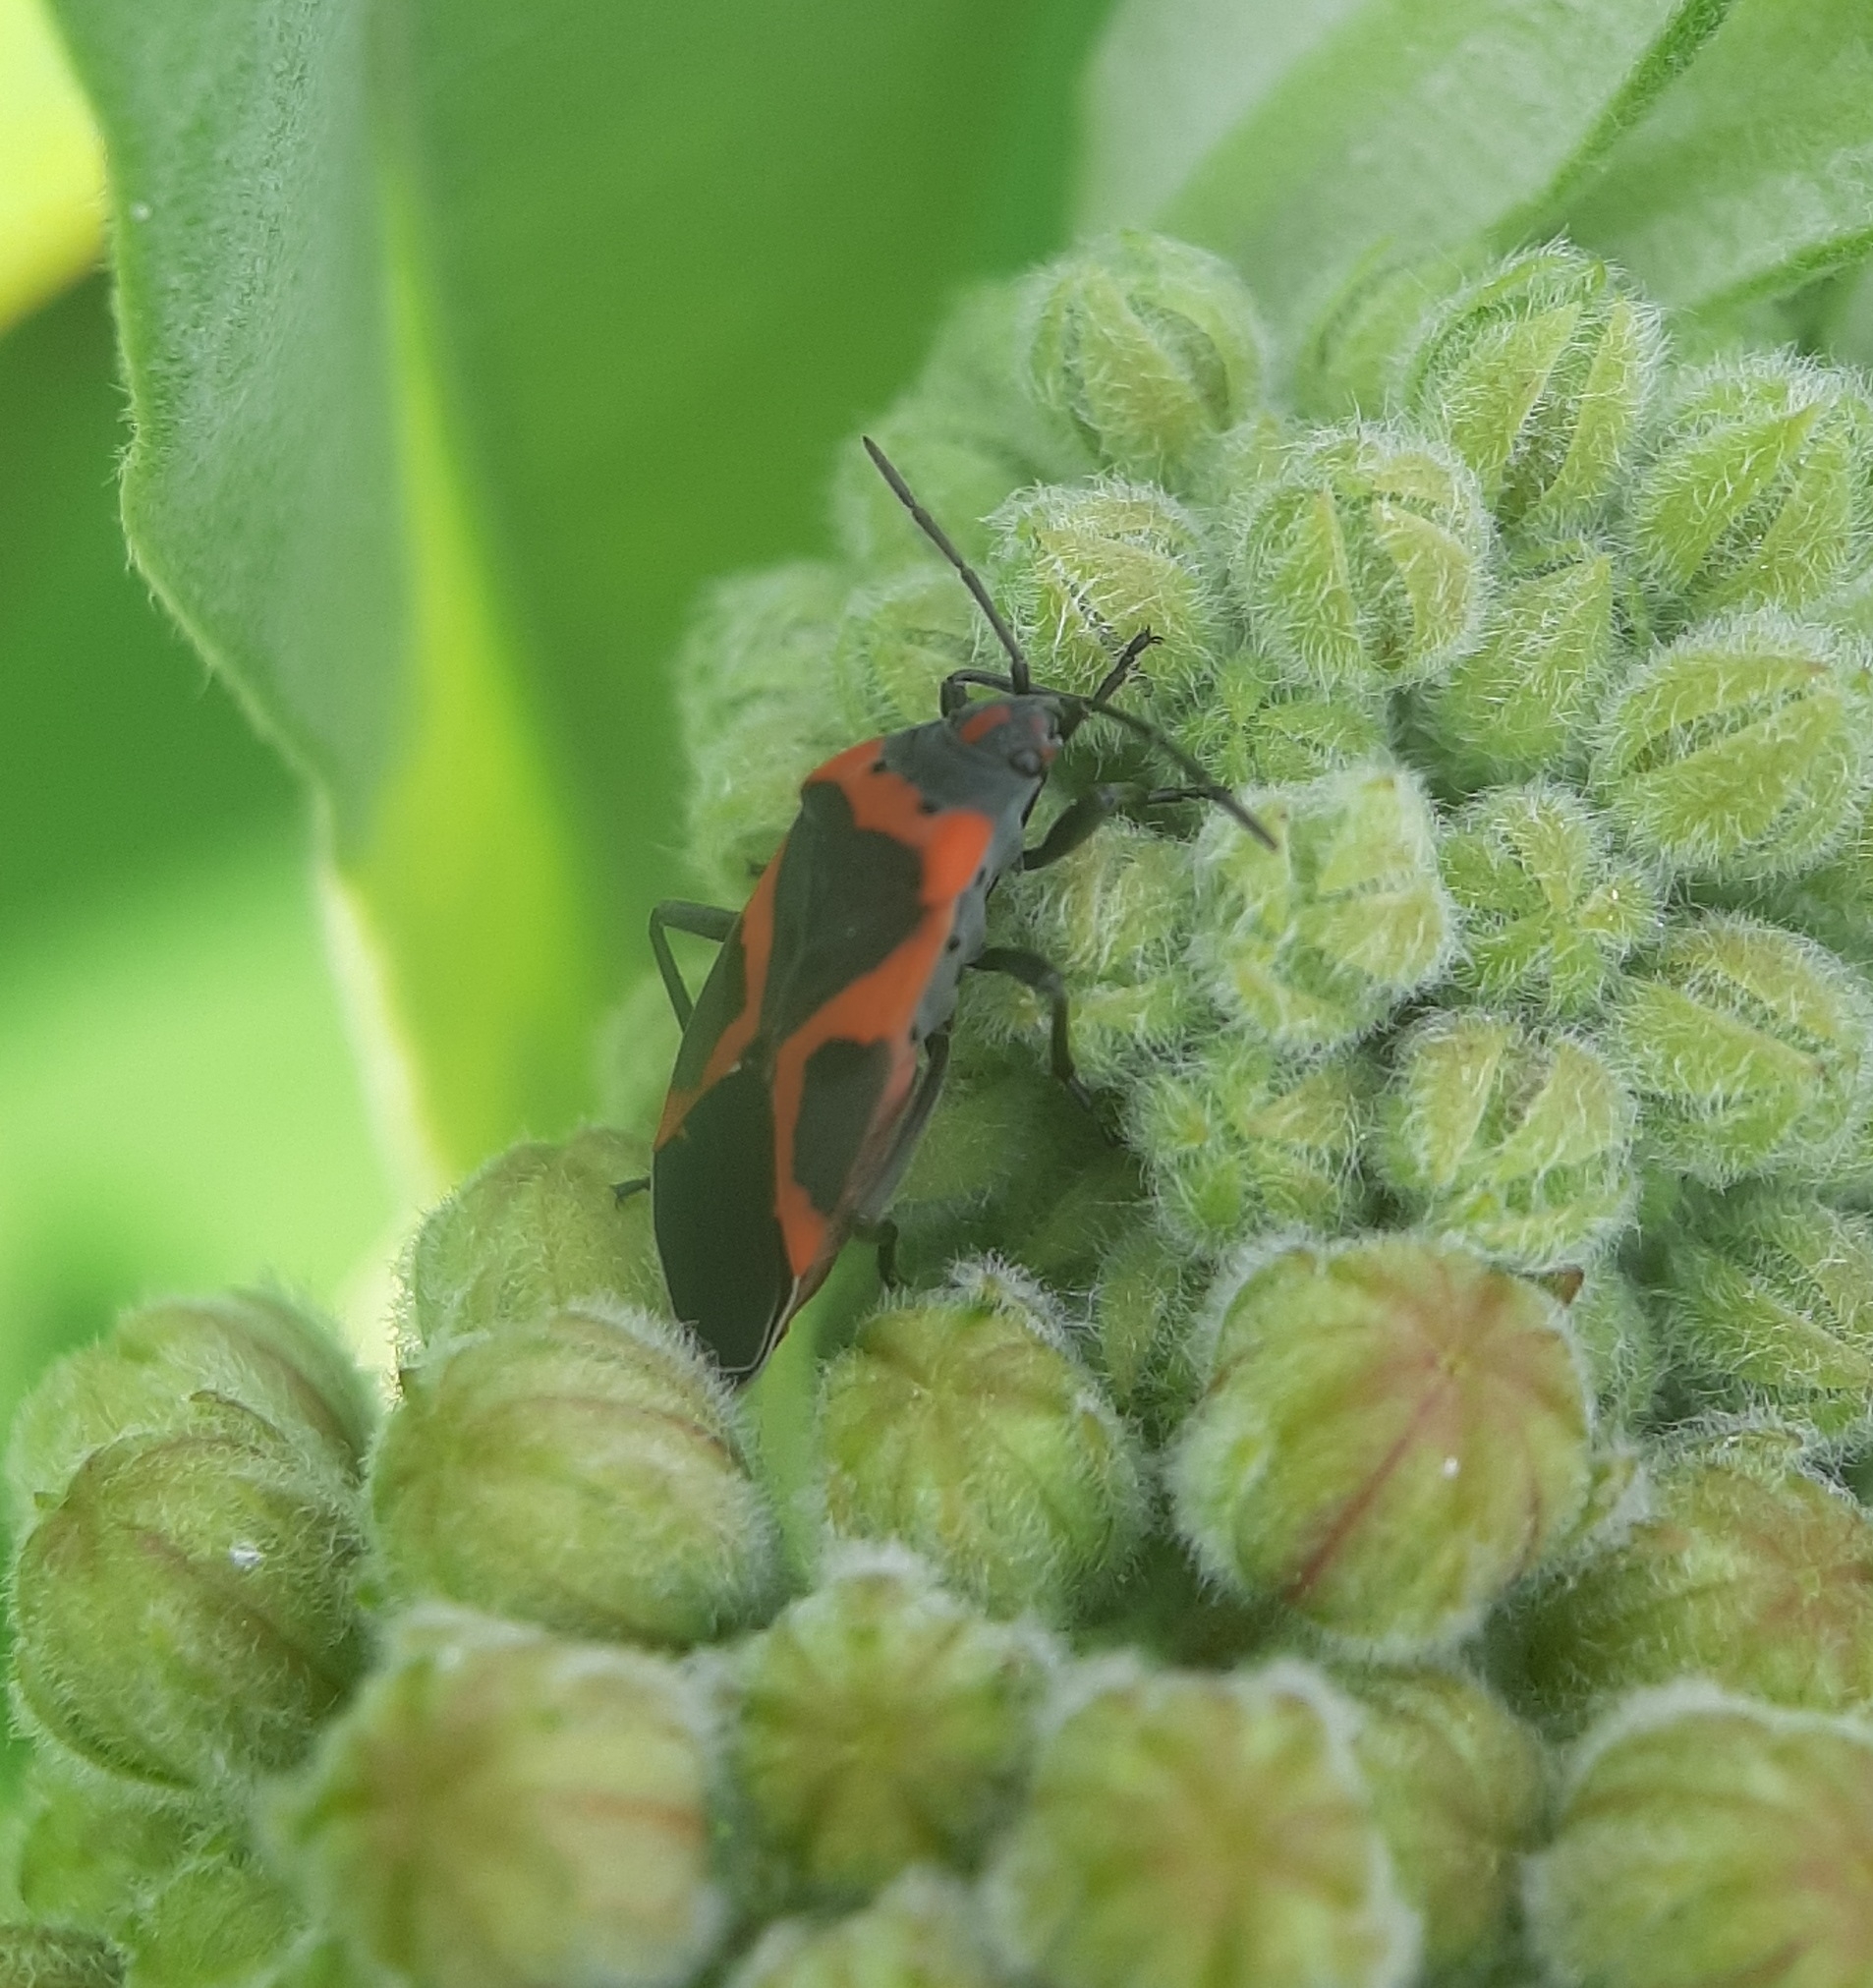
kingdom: Animalia
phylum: Arthropoda
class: Insecta
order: Hemiptera
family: Lygaeidae
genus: Lygaeus
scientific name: Lygaeus kalmii
